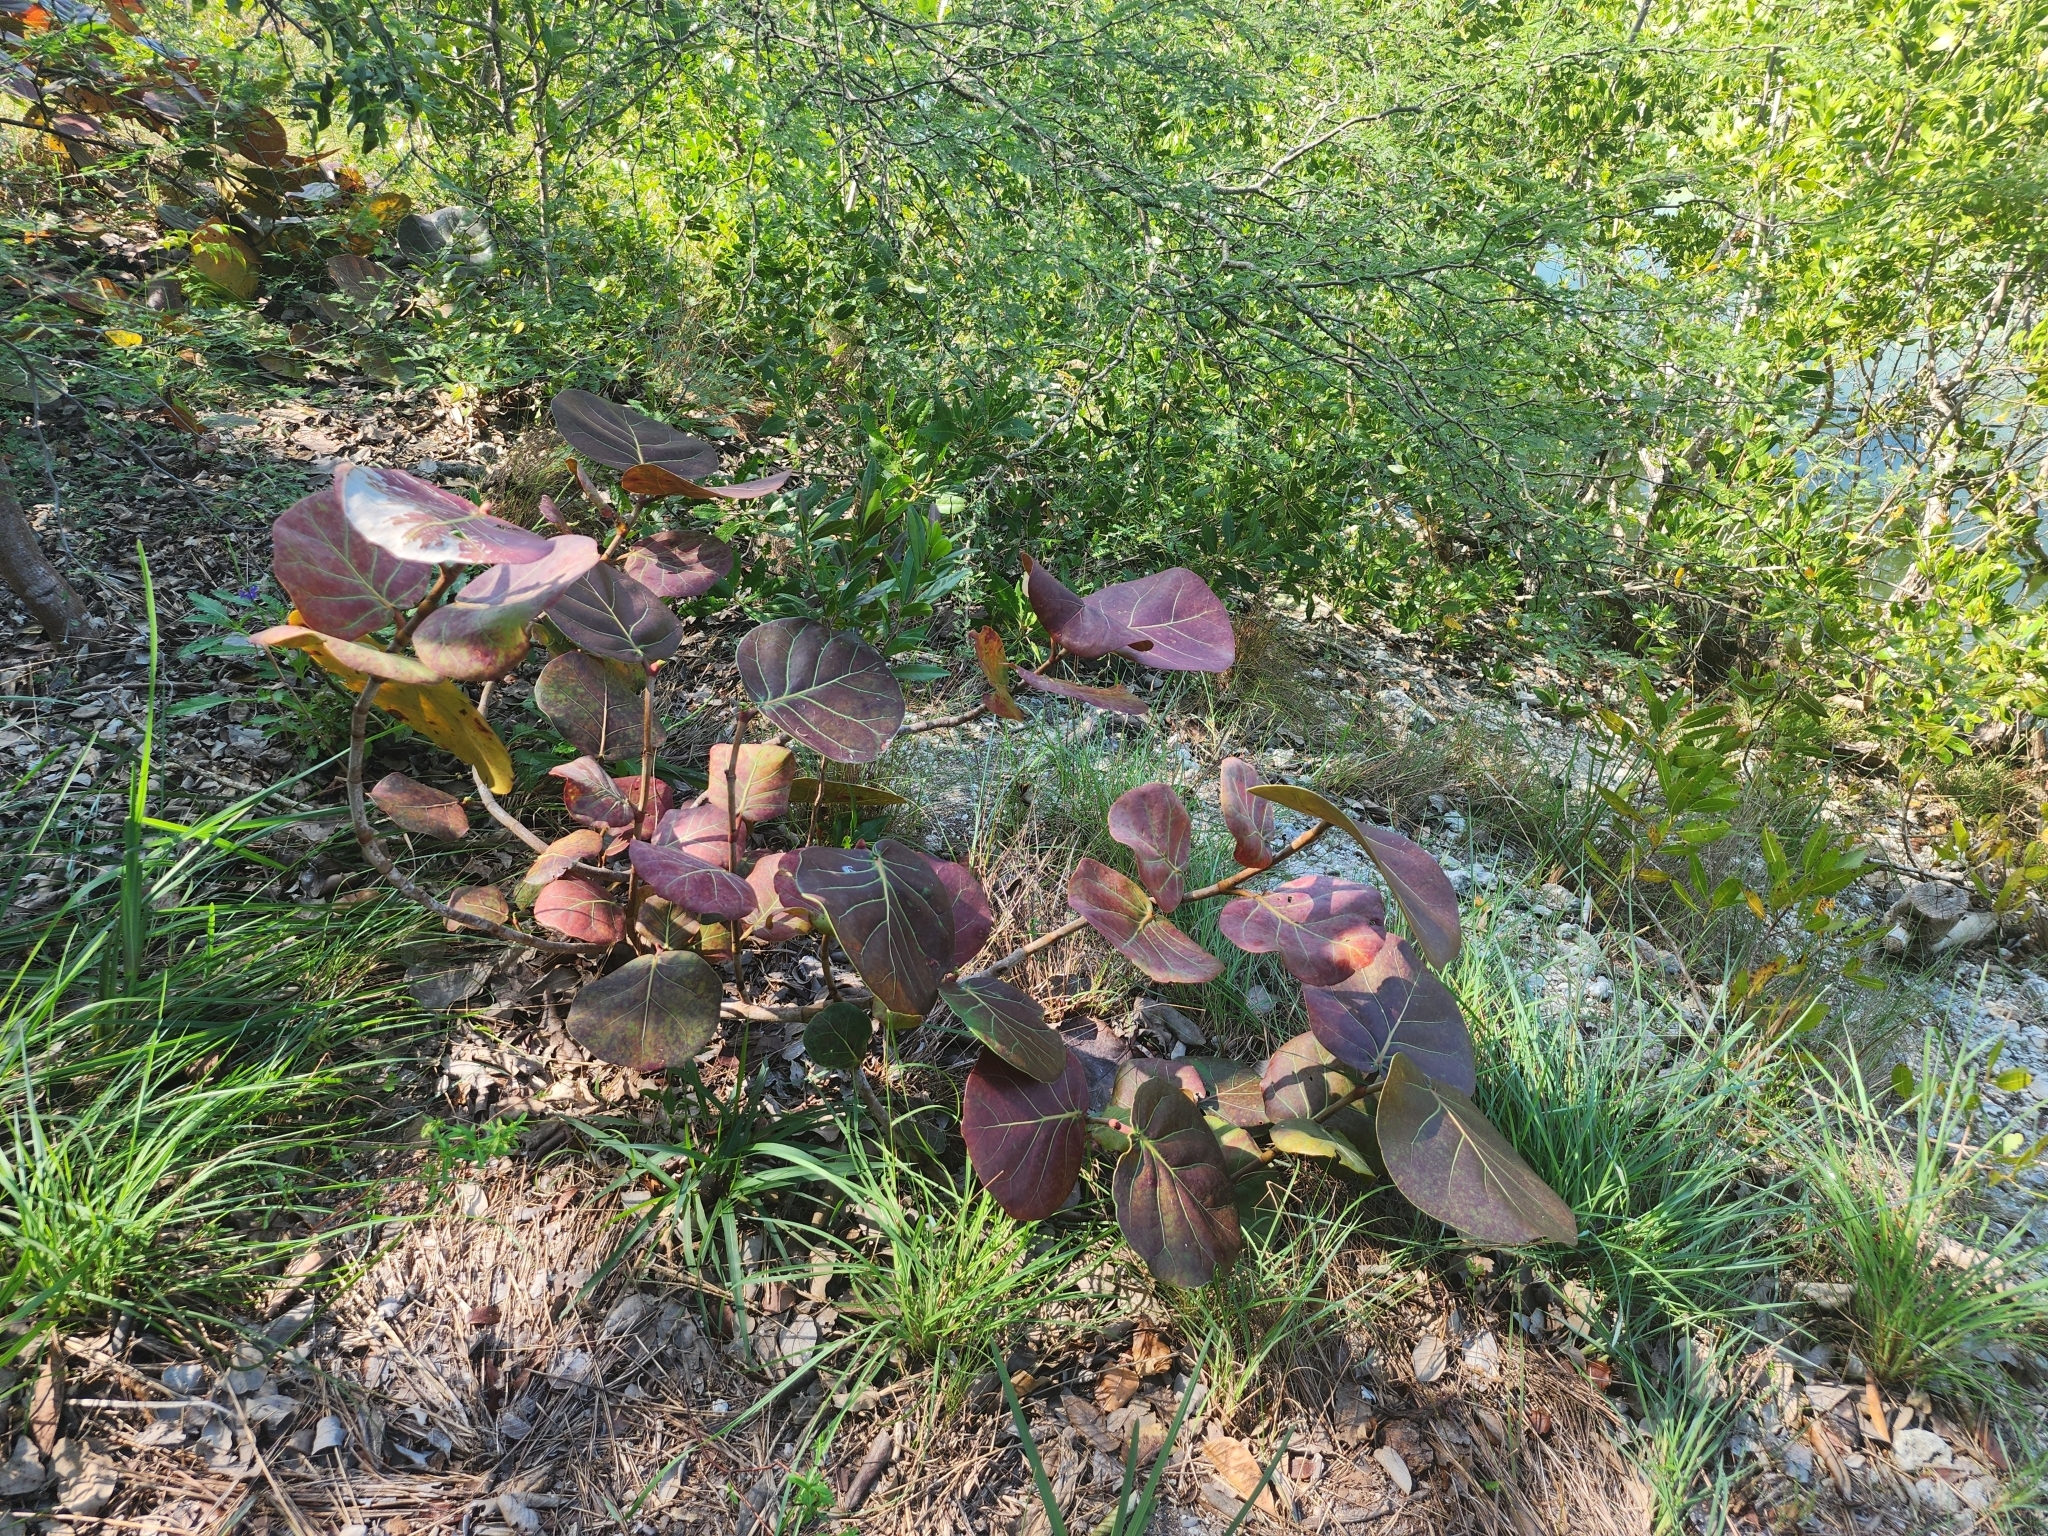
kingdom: Plantae
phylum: Tracheophyta
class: Magnoliopsida
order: Caryophyllales
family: Polygonaceae
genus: Coccoloba
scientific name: Coccoloba uvifera
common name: Seagrape
